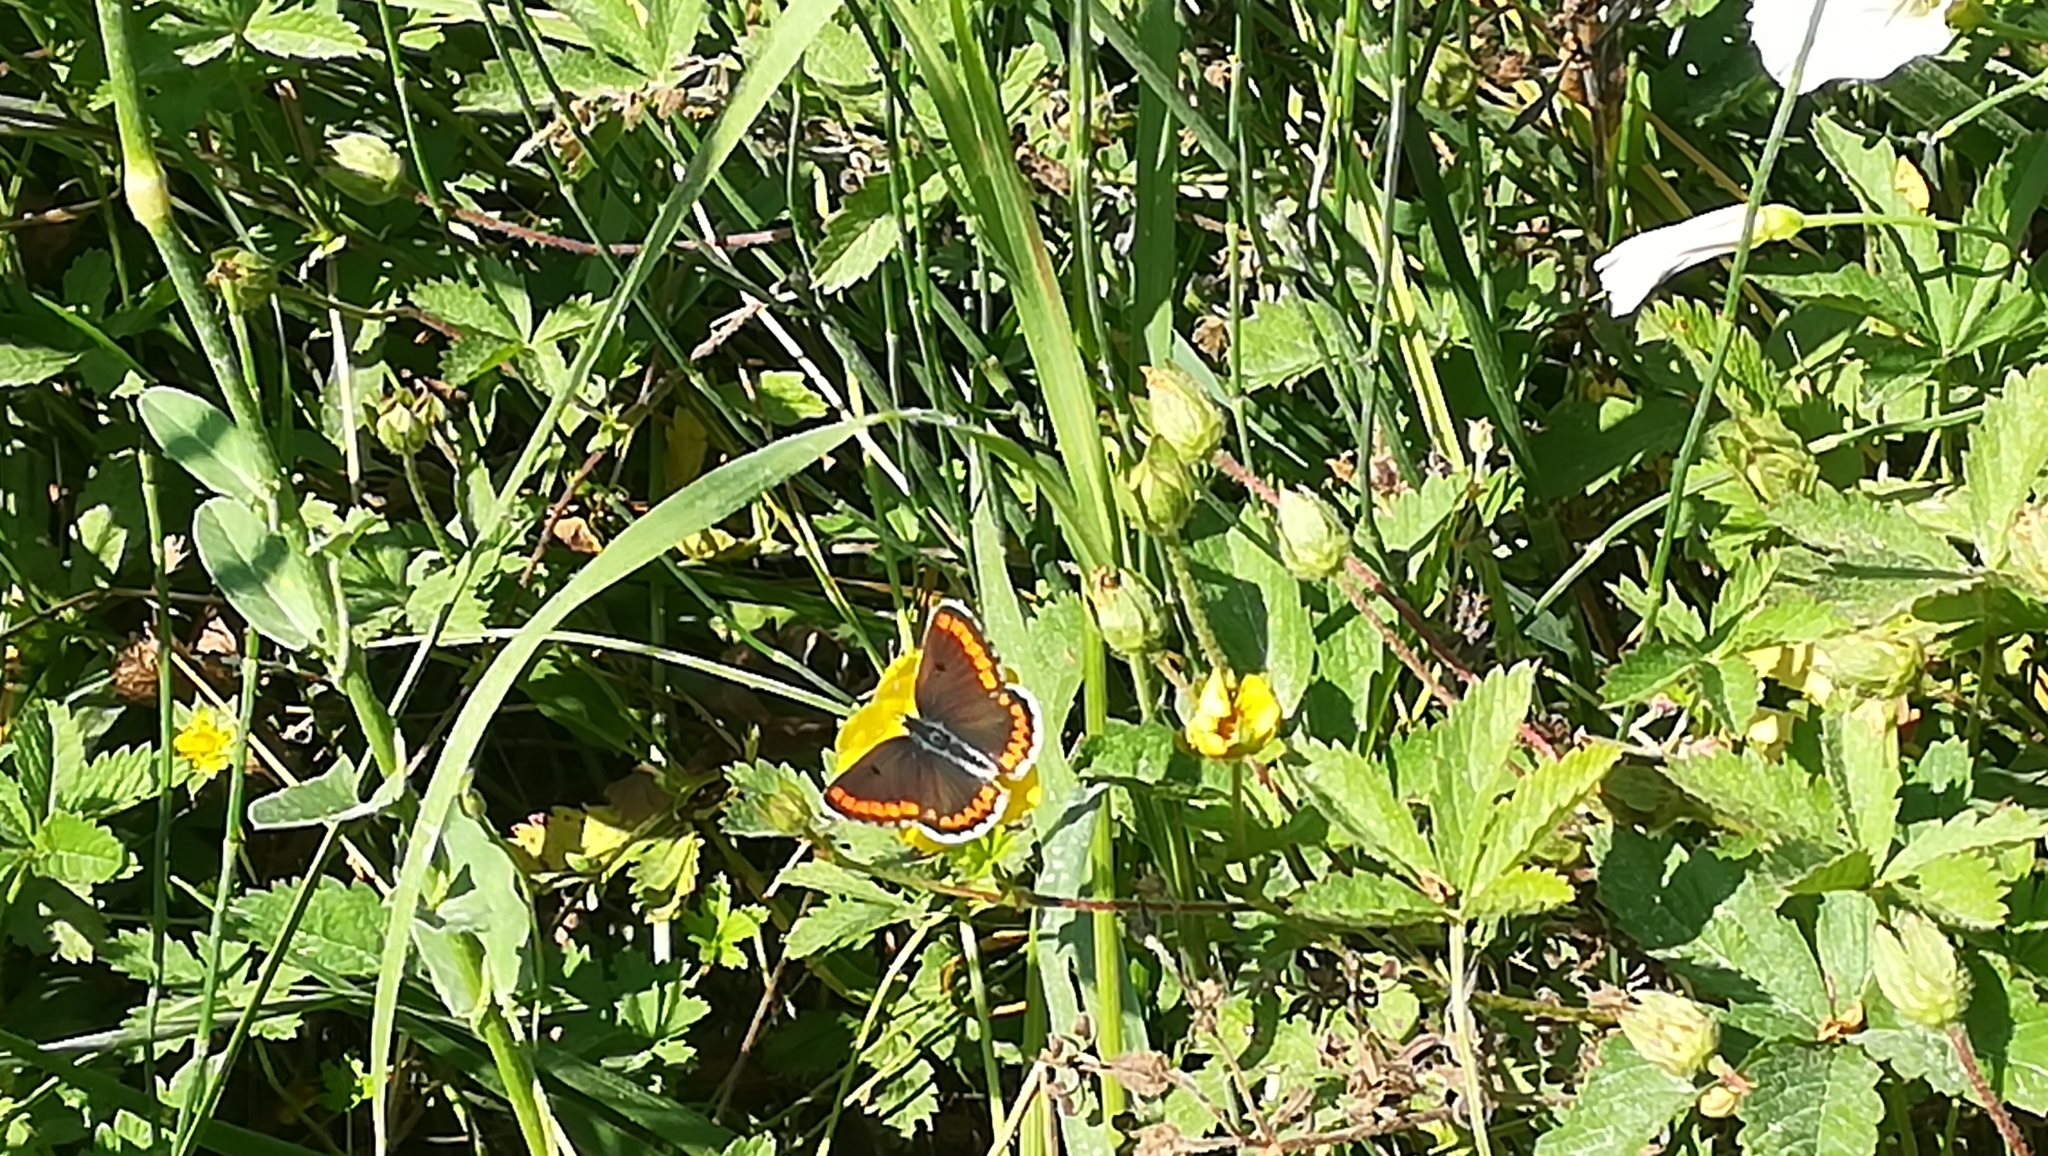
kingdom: Animalia
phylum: Arthropoda
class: Insecta
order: Lepidoptera
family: Lycaenidae
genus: Aricia
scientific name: Aricia agestis
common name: Brown argus
